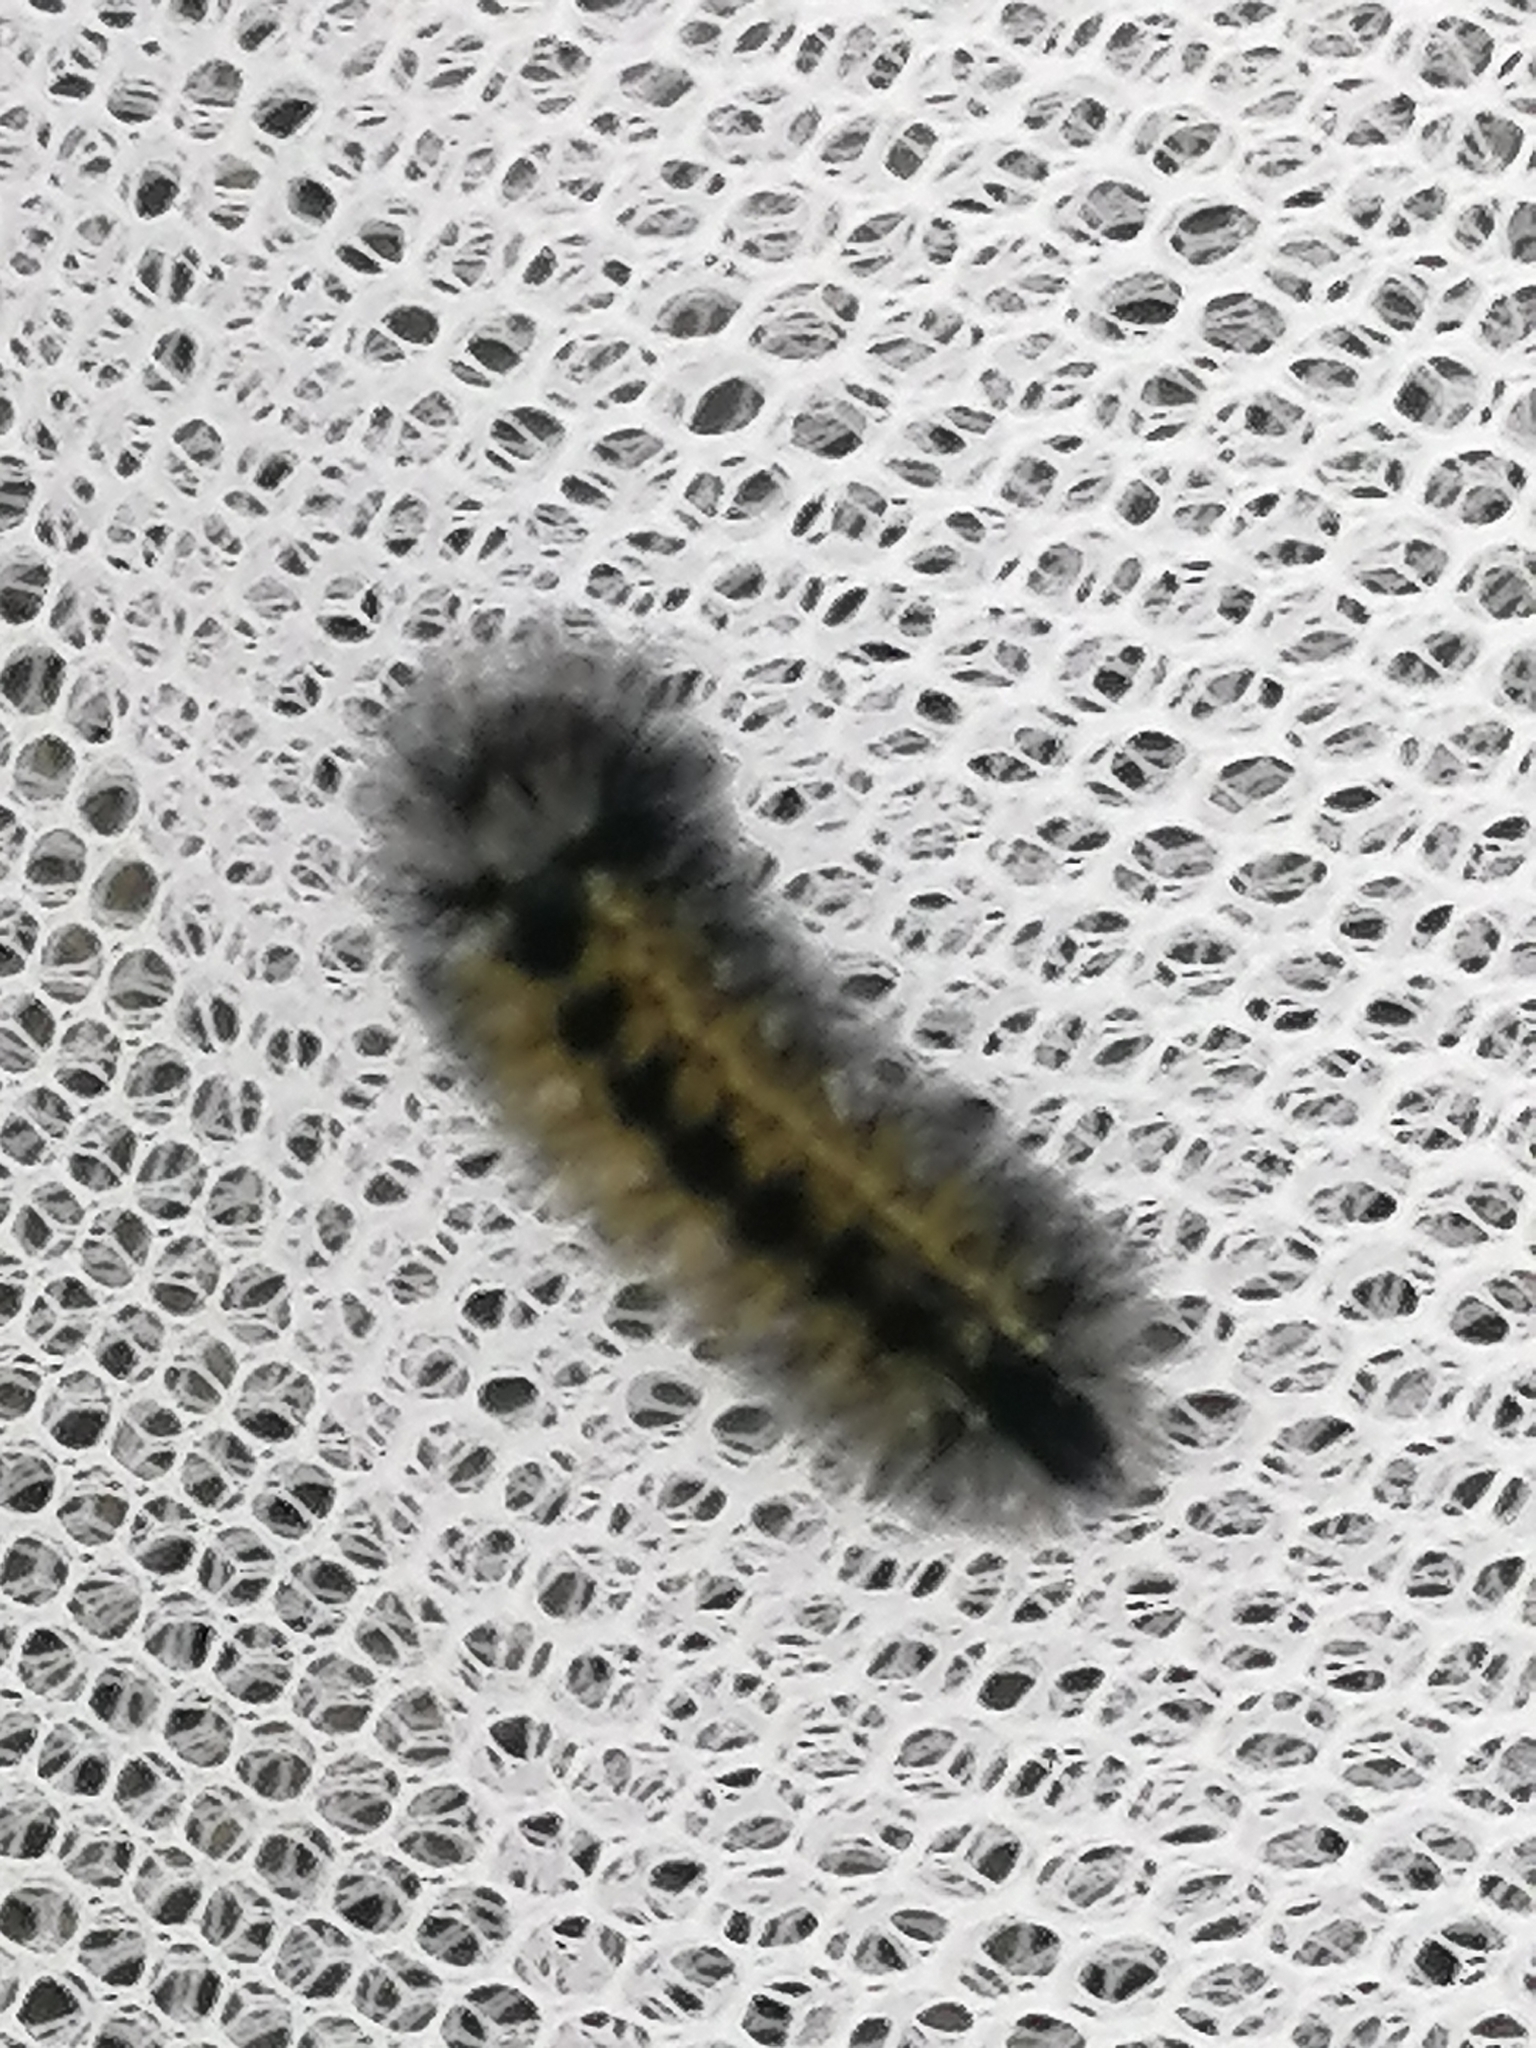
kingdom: Animalia
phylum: Arthropoda
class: Insecta
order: Lepidoptera
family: Erebidae
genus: Ctenucha
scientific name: Ctenucha virginica
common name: Virginia ctenucha moth
